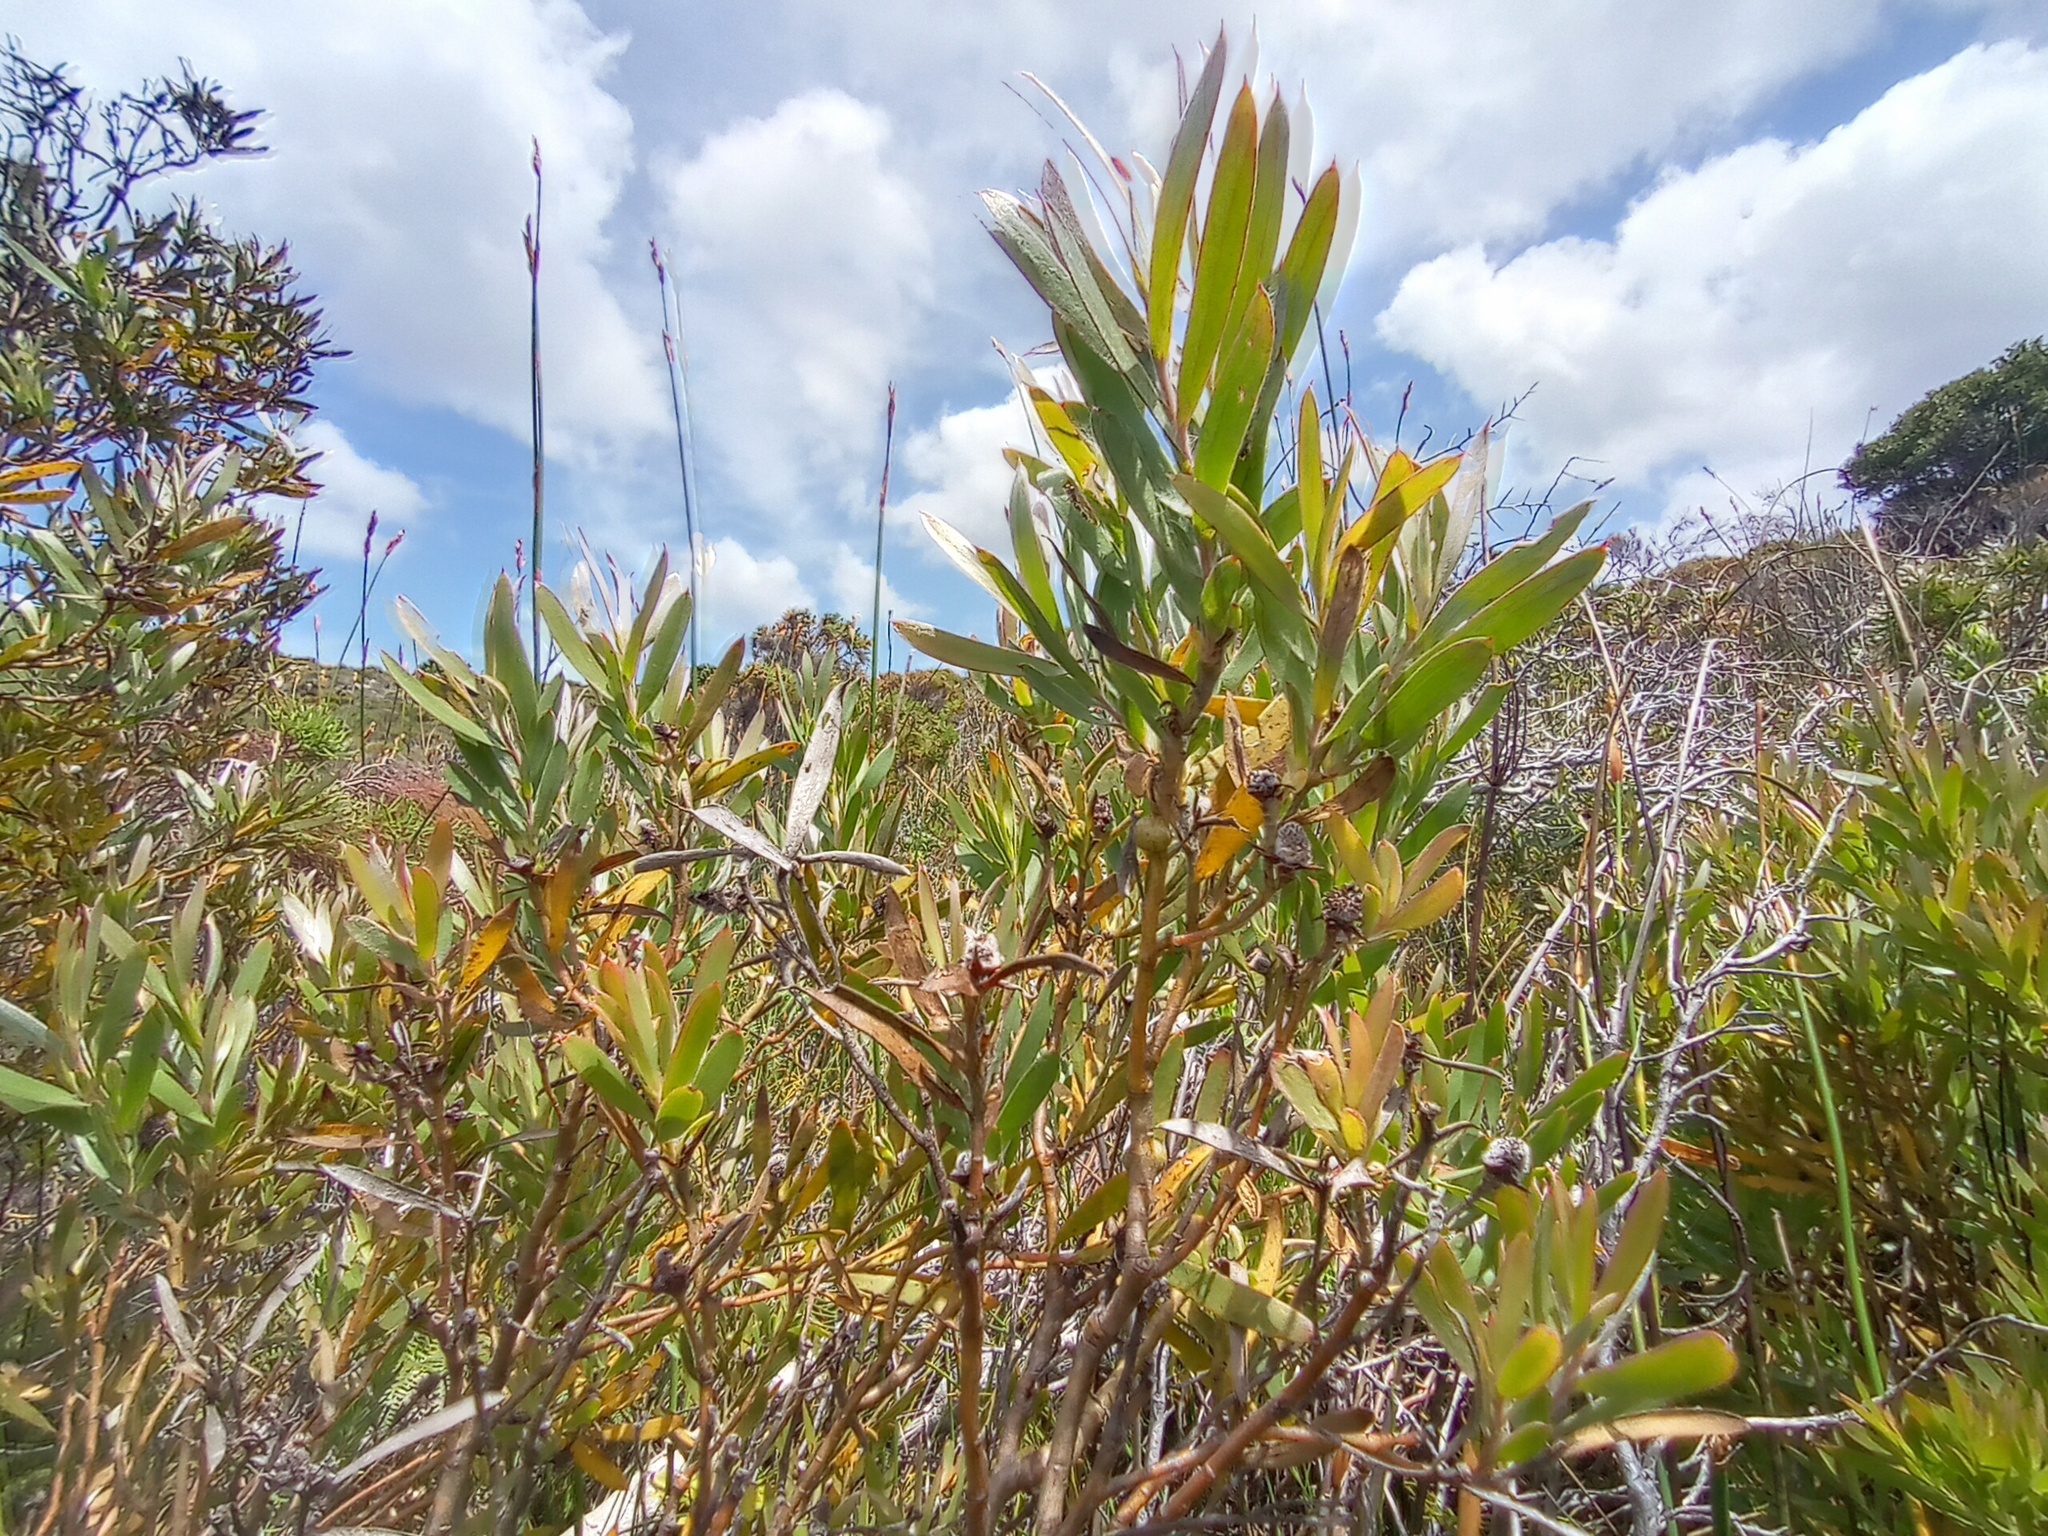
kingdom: Plantae
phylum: Tracheophyta
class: Magnoliopsida
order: Proteales
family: Proteaceae
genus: Leucadendron
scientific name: Leucadendron macowanii
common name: Acacia-leaf conebush
